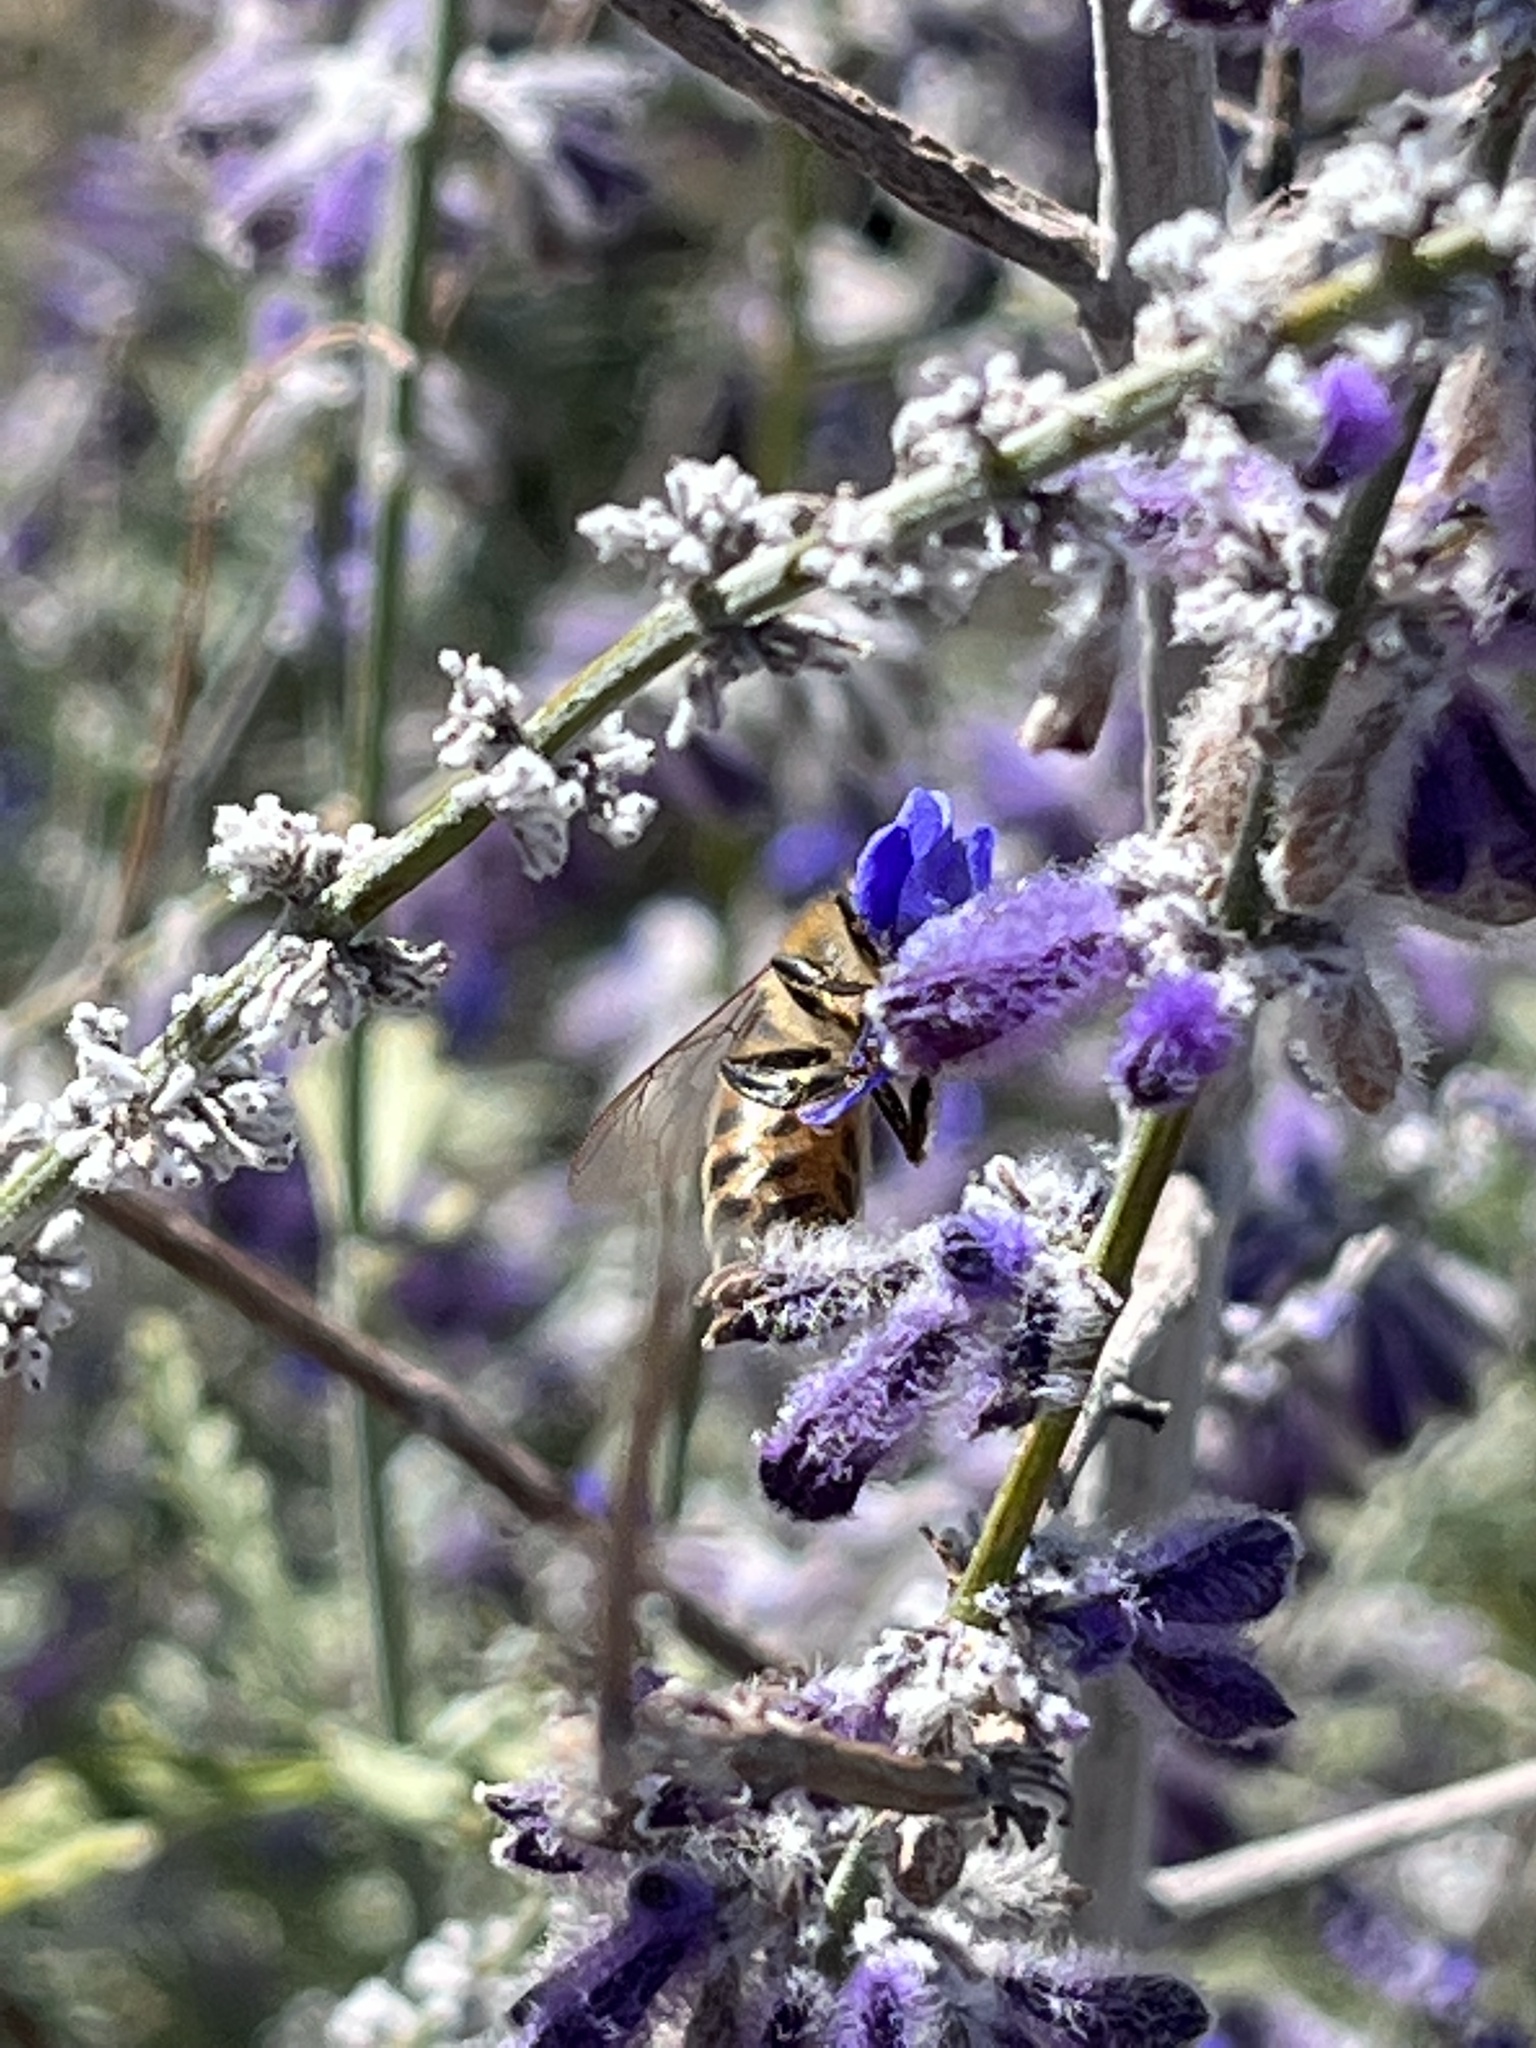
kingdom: Animalia
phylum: Arthropoda
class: Insecta
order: Hymenoptera
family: Apidae
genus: Apis
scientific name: Apis mellifera
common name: Honey bee
